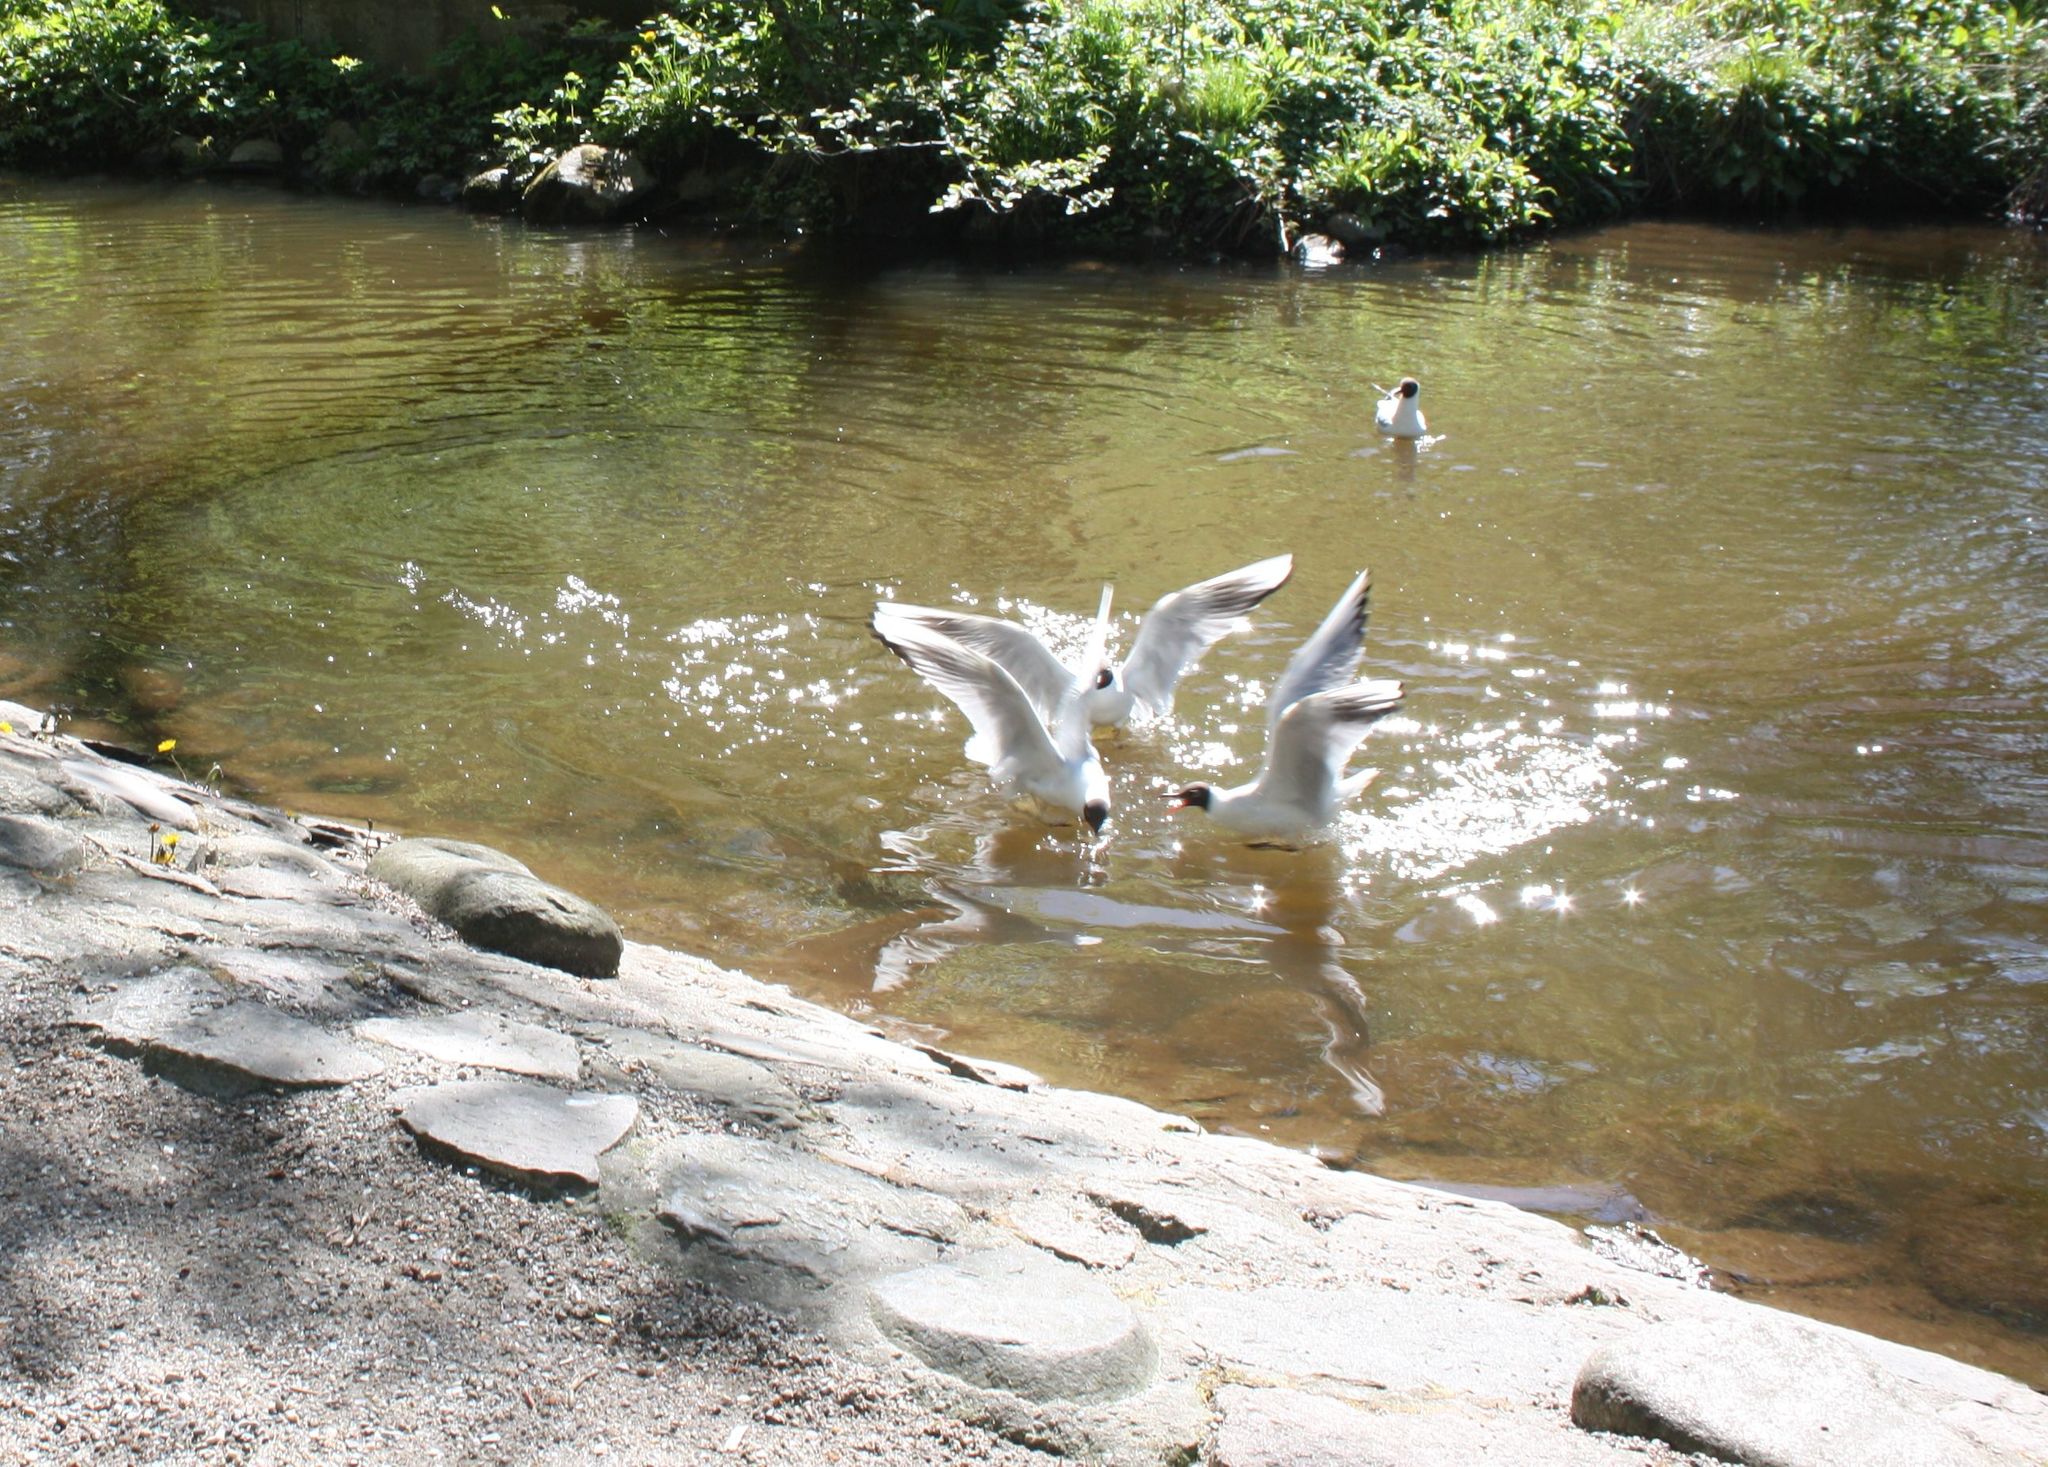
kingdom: Animalia
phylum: Chordata
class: Aves
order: Charadriiformes
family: Laridae
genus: Chroicocephalus
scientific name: Chroicocephalus ridibundus
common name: Black-headed gull
